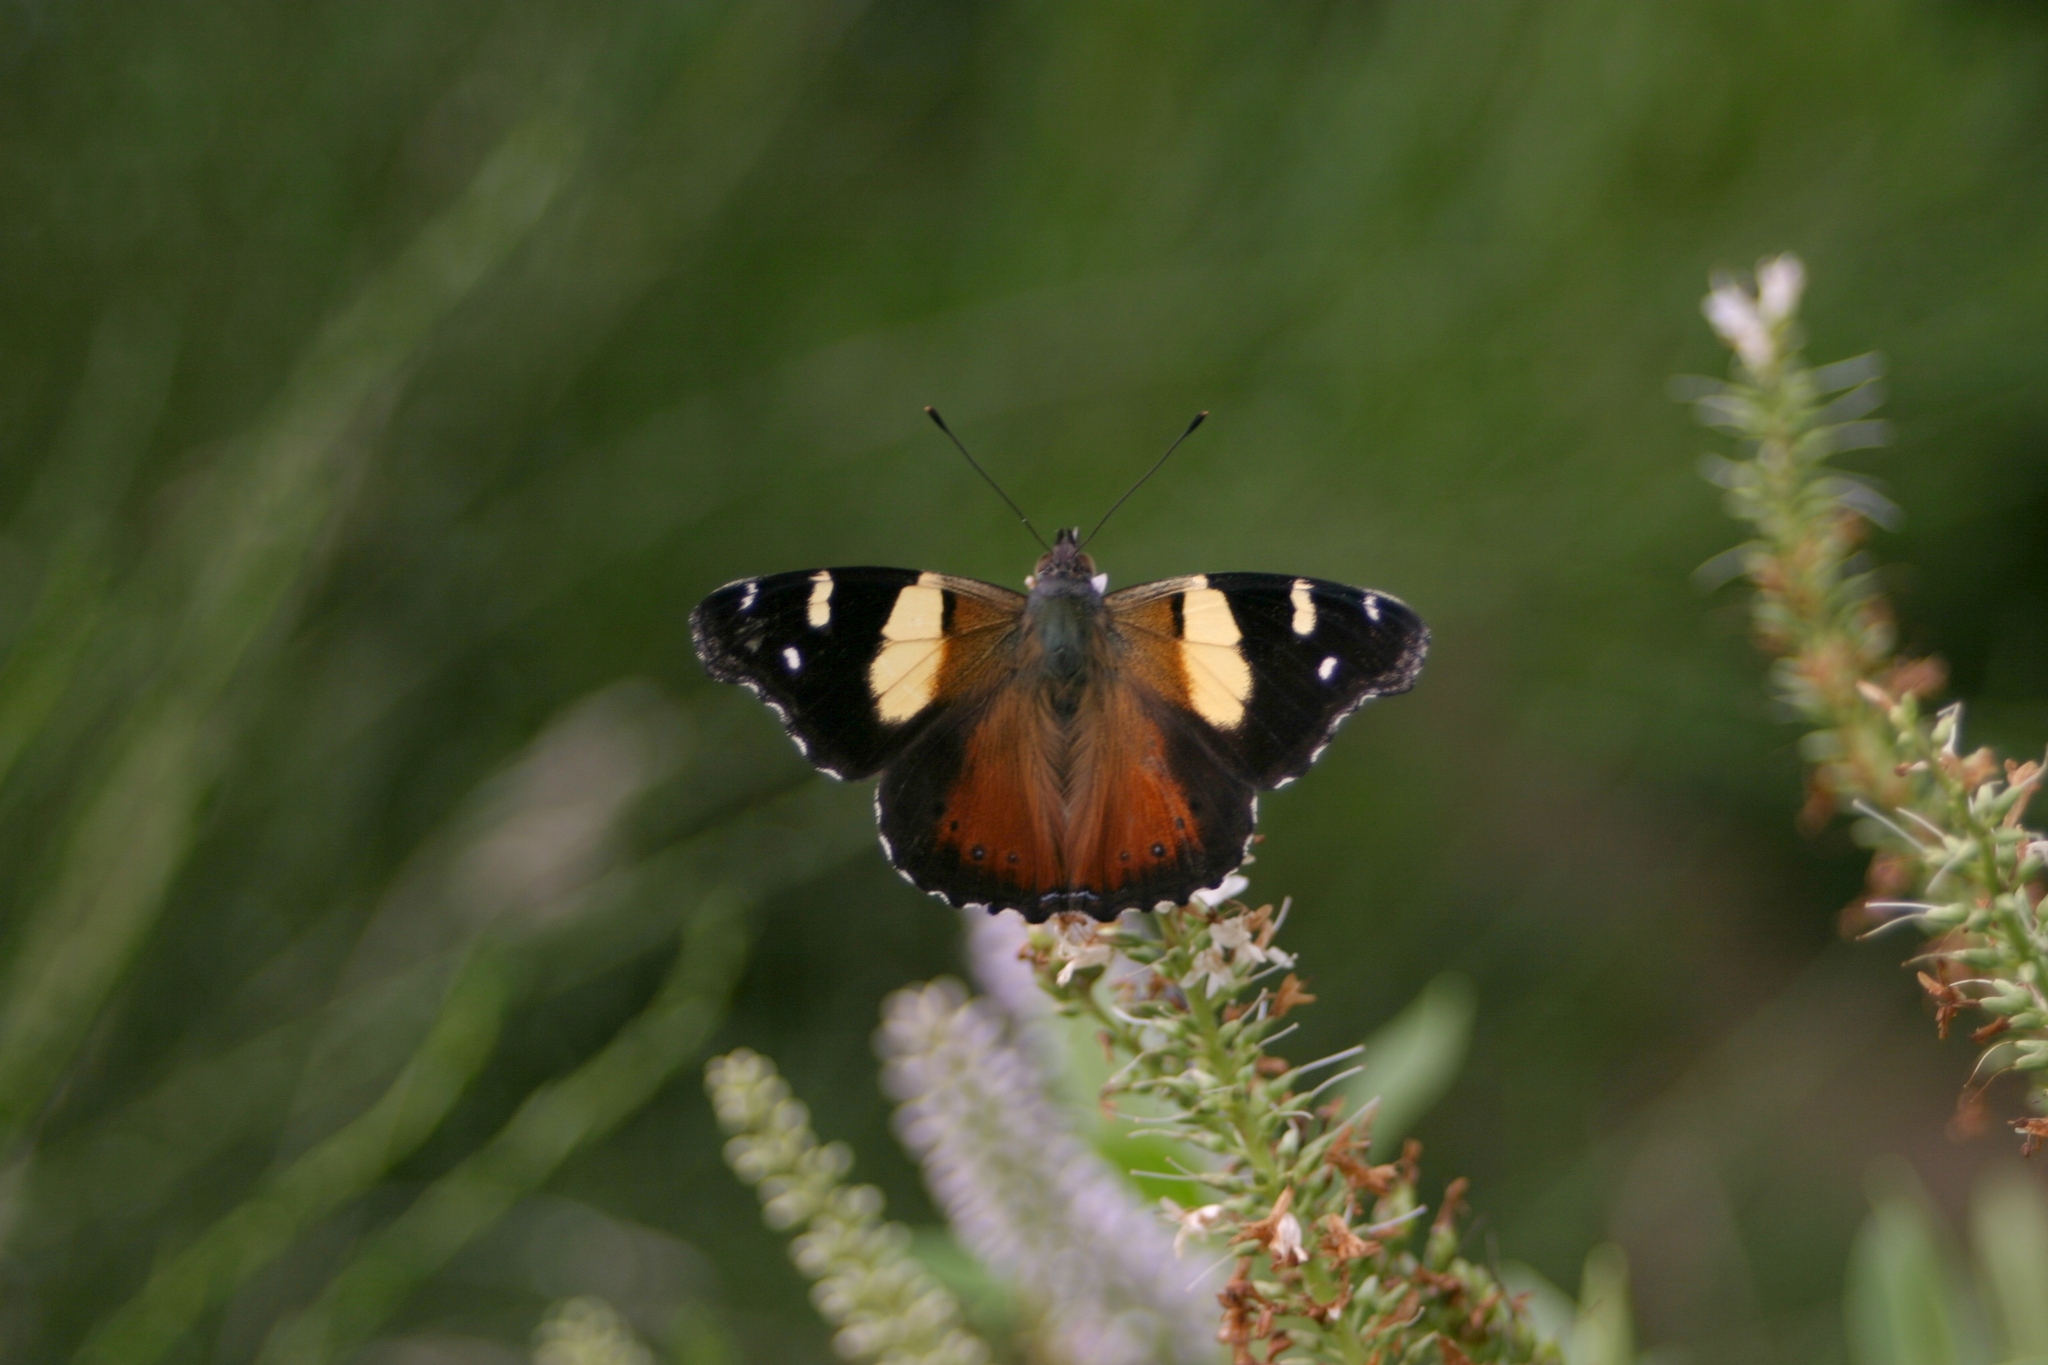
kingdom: Animalia
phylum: Arthropoda
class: Insecta
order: Lepidoptera
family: Nymphalidae
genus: Vanessa
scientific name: Vanessa itea
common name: Yellow admiral
